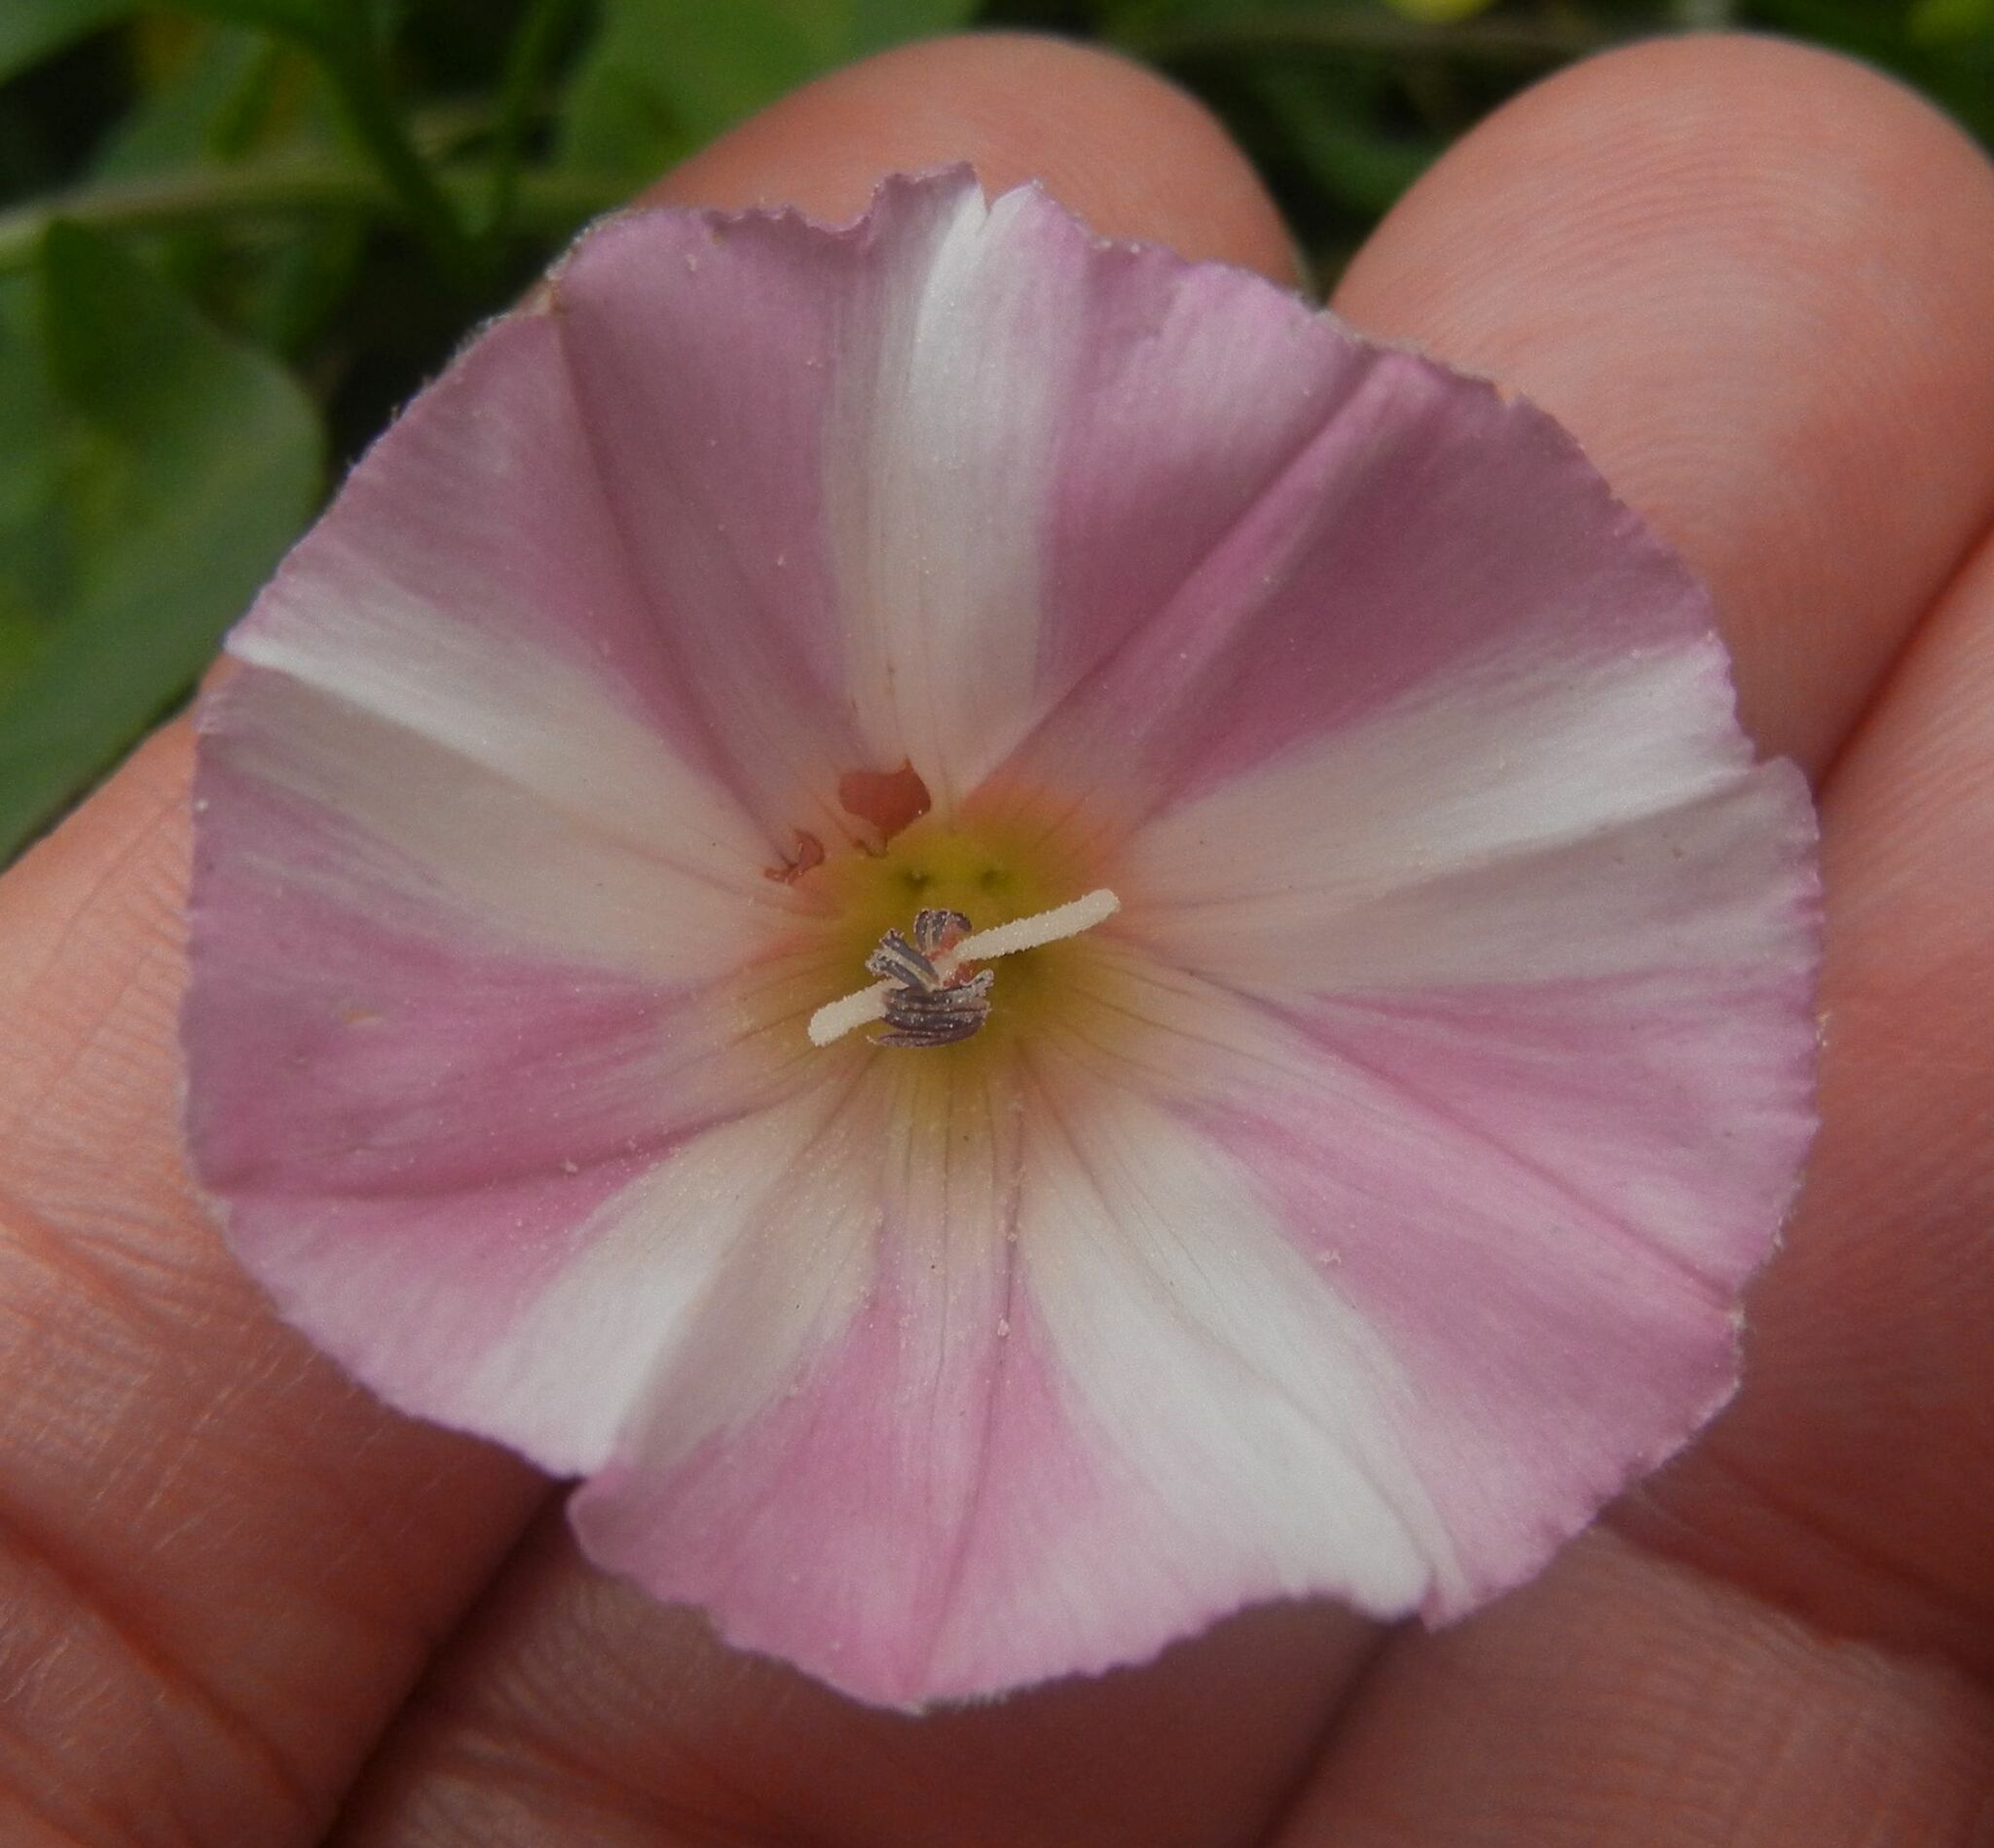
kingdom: Plantae
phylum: Tracheophyta
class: Magnoliopsida
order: Solanales
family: Convolvulaceae
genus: Convolvulus
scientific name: Convolvulus arvensis
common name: Field bindweed
